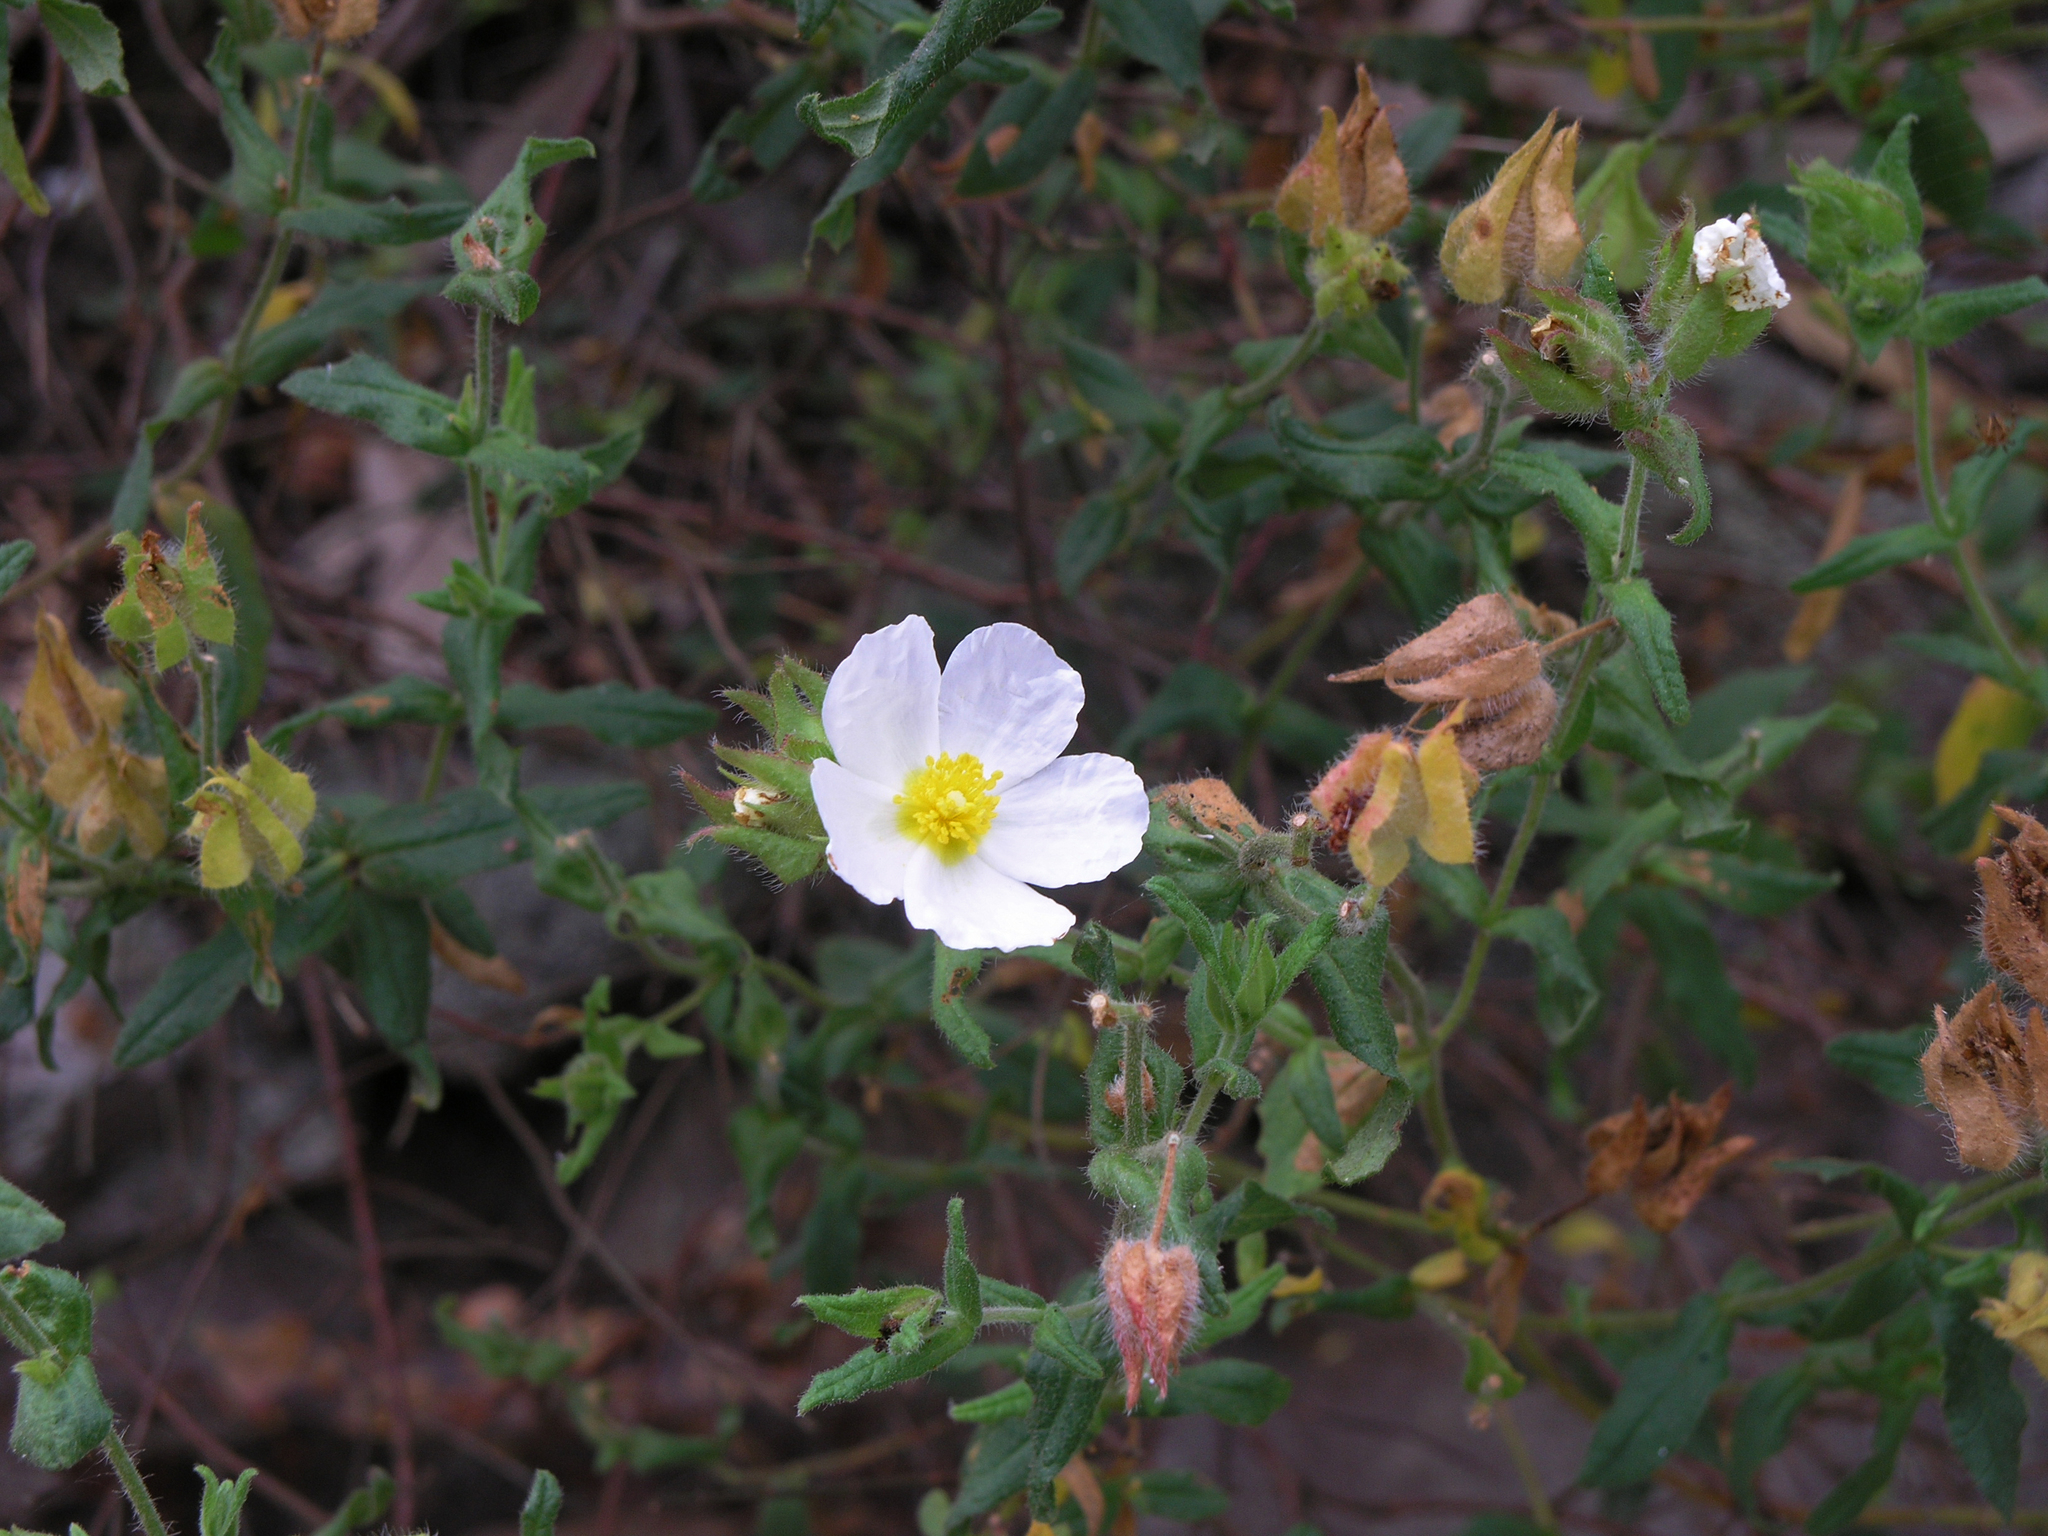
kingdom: Plantae
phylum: Tracheophyta
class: Magnoliopsida
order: Malvales
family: Cistaceae
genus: Cistus
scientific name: Cistus inflatus
